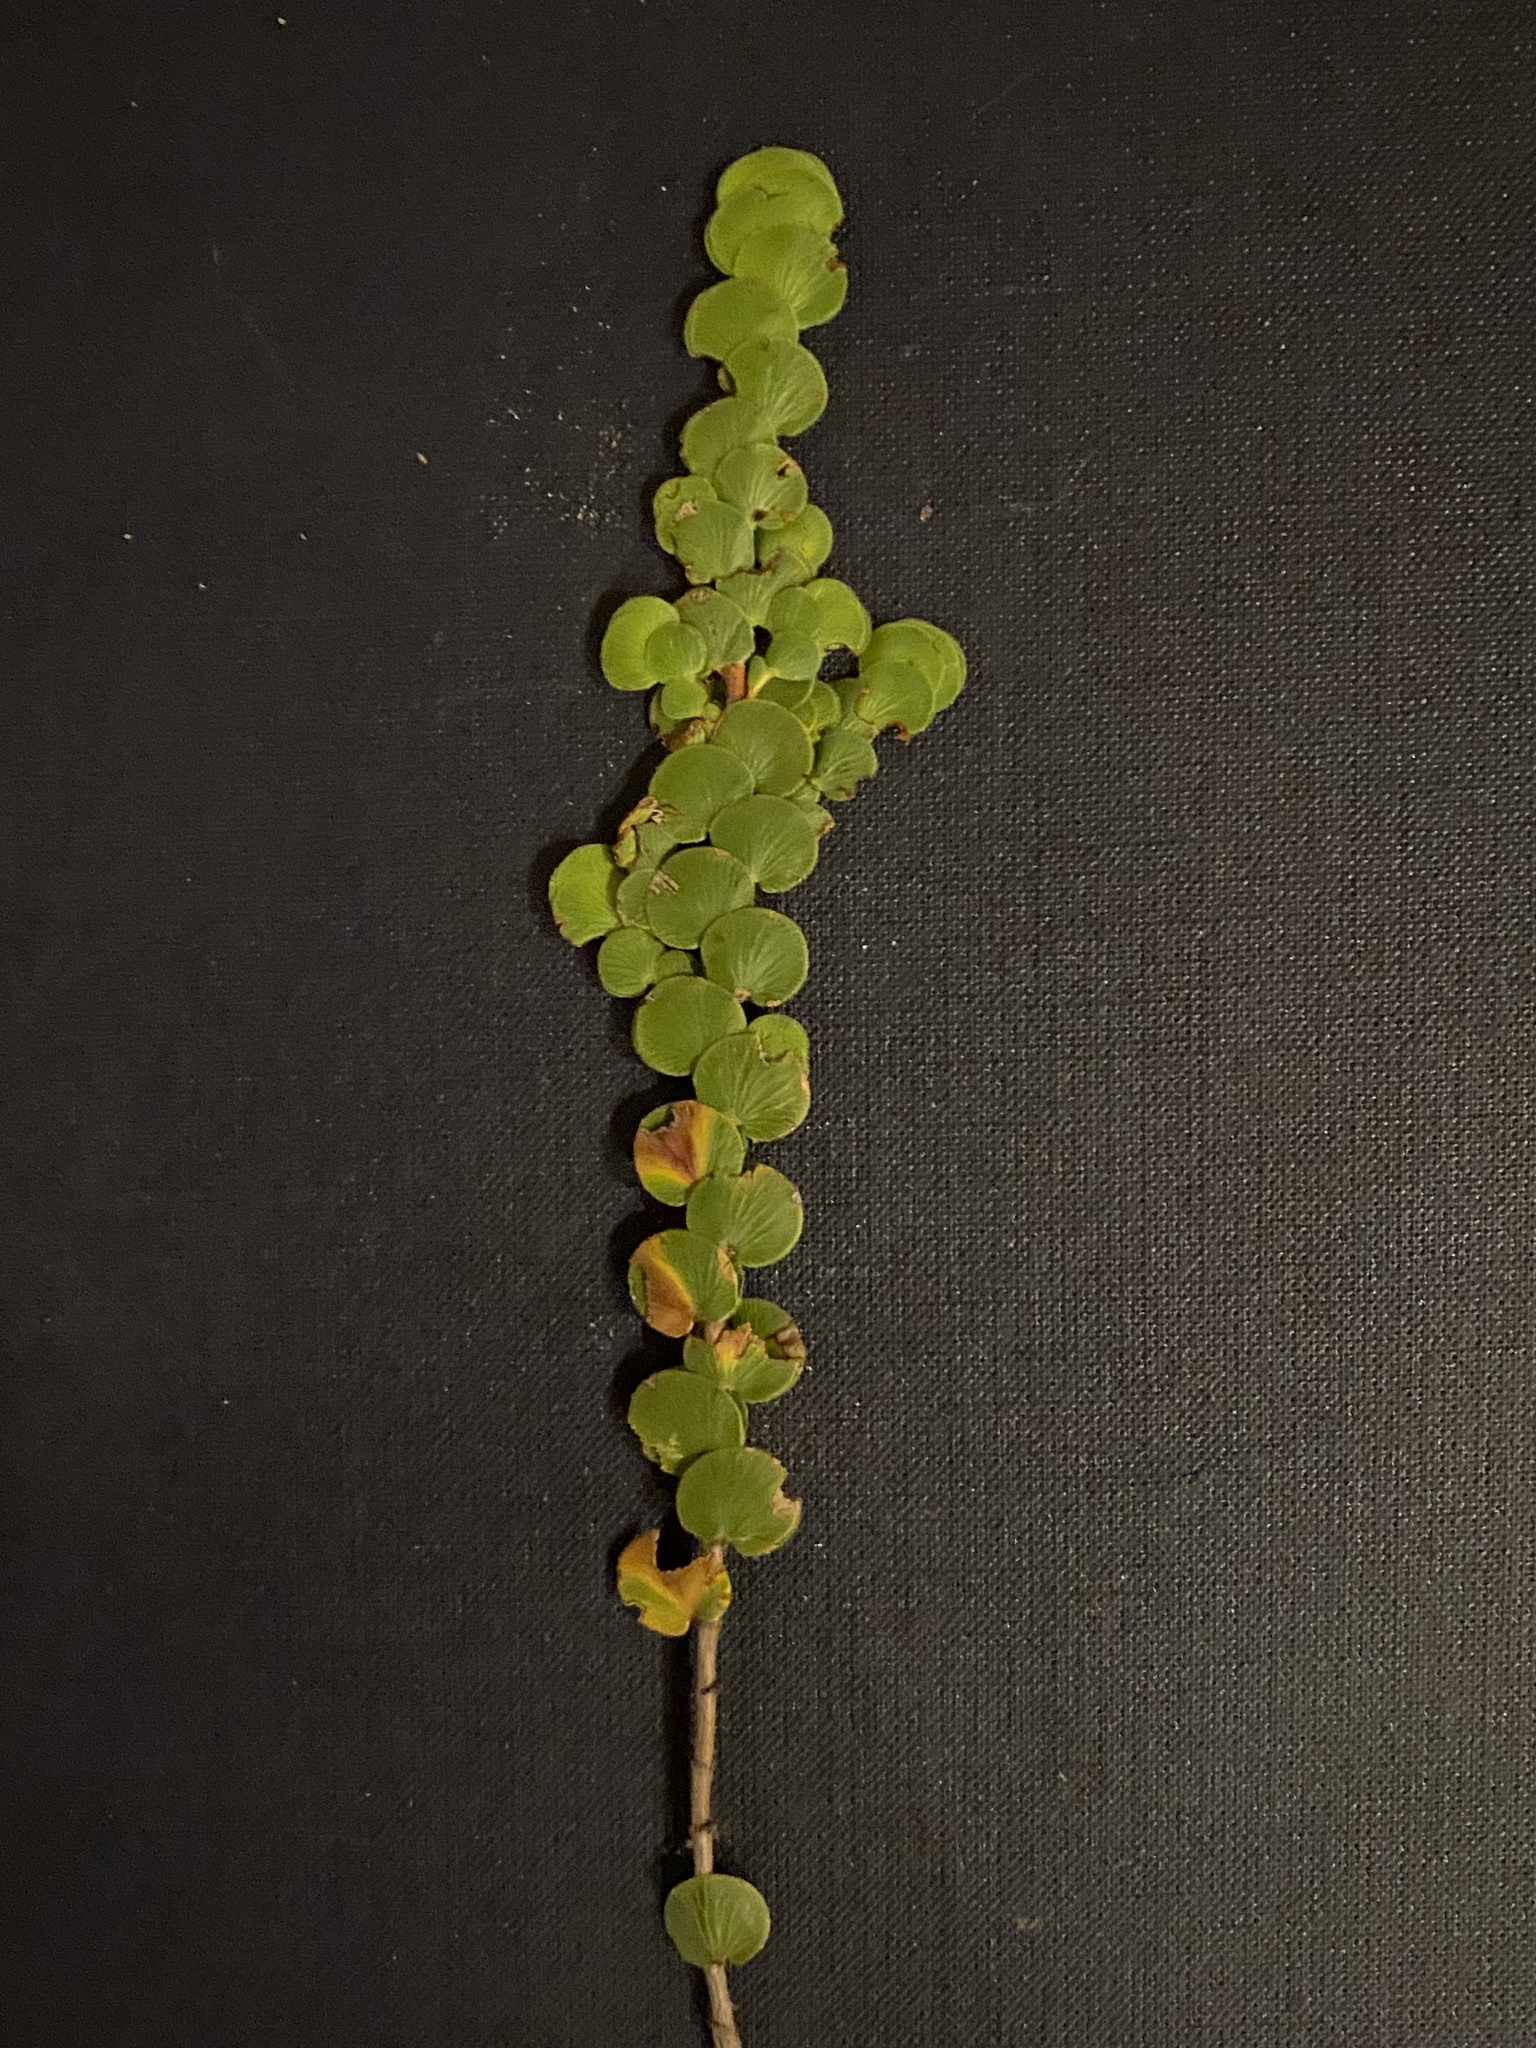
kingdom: Plantae
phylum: Tracheophyta
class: Magnoliopsida
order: Rosales
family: Rosaceae
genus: Cliffortia
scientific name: Cliffortia pulchella
